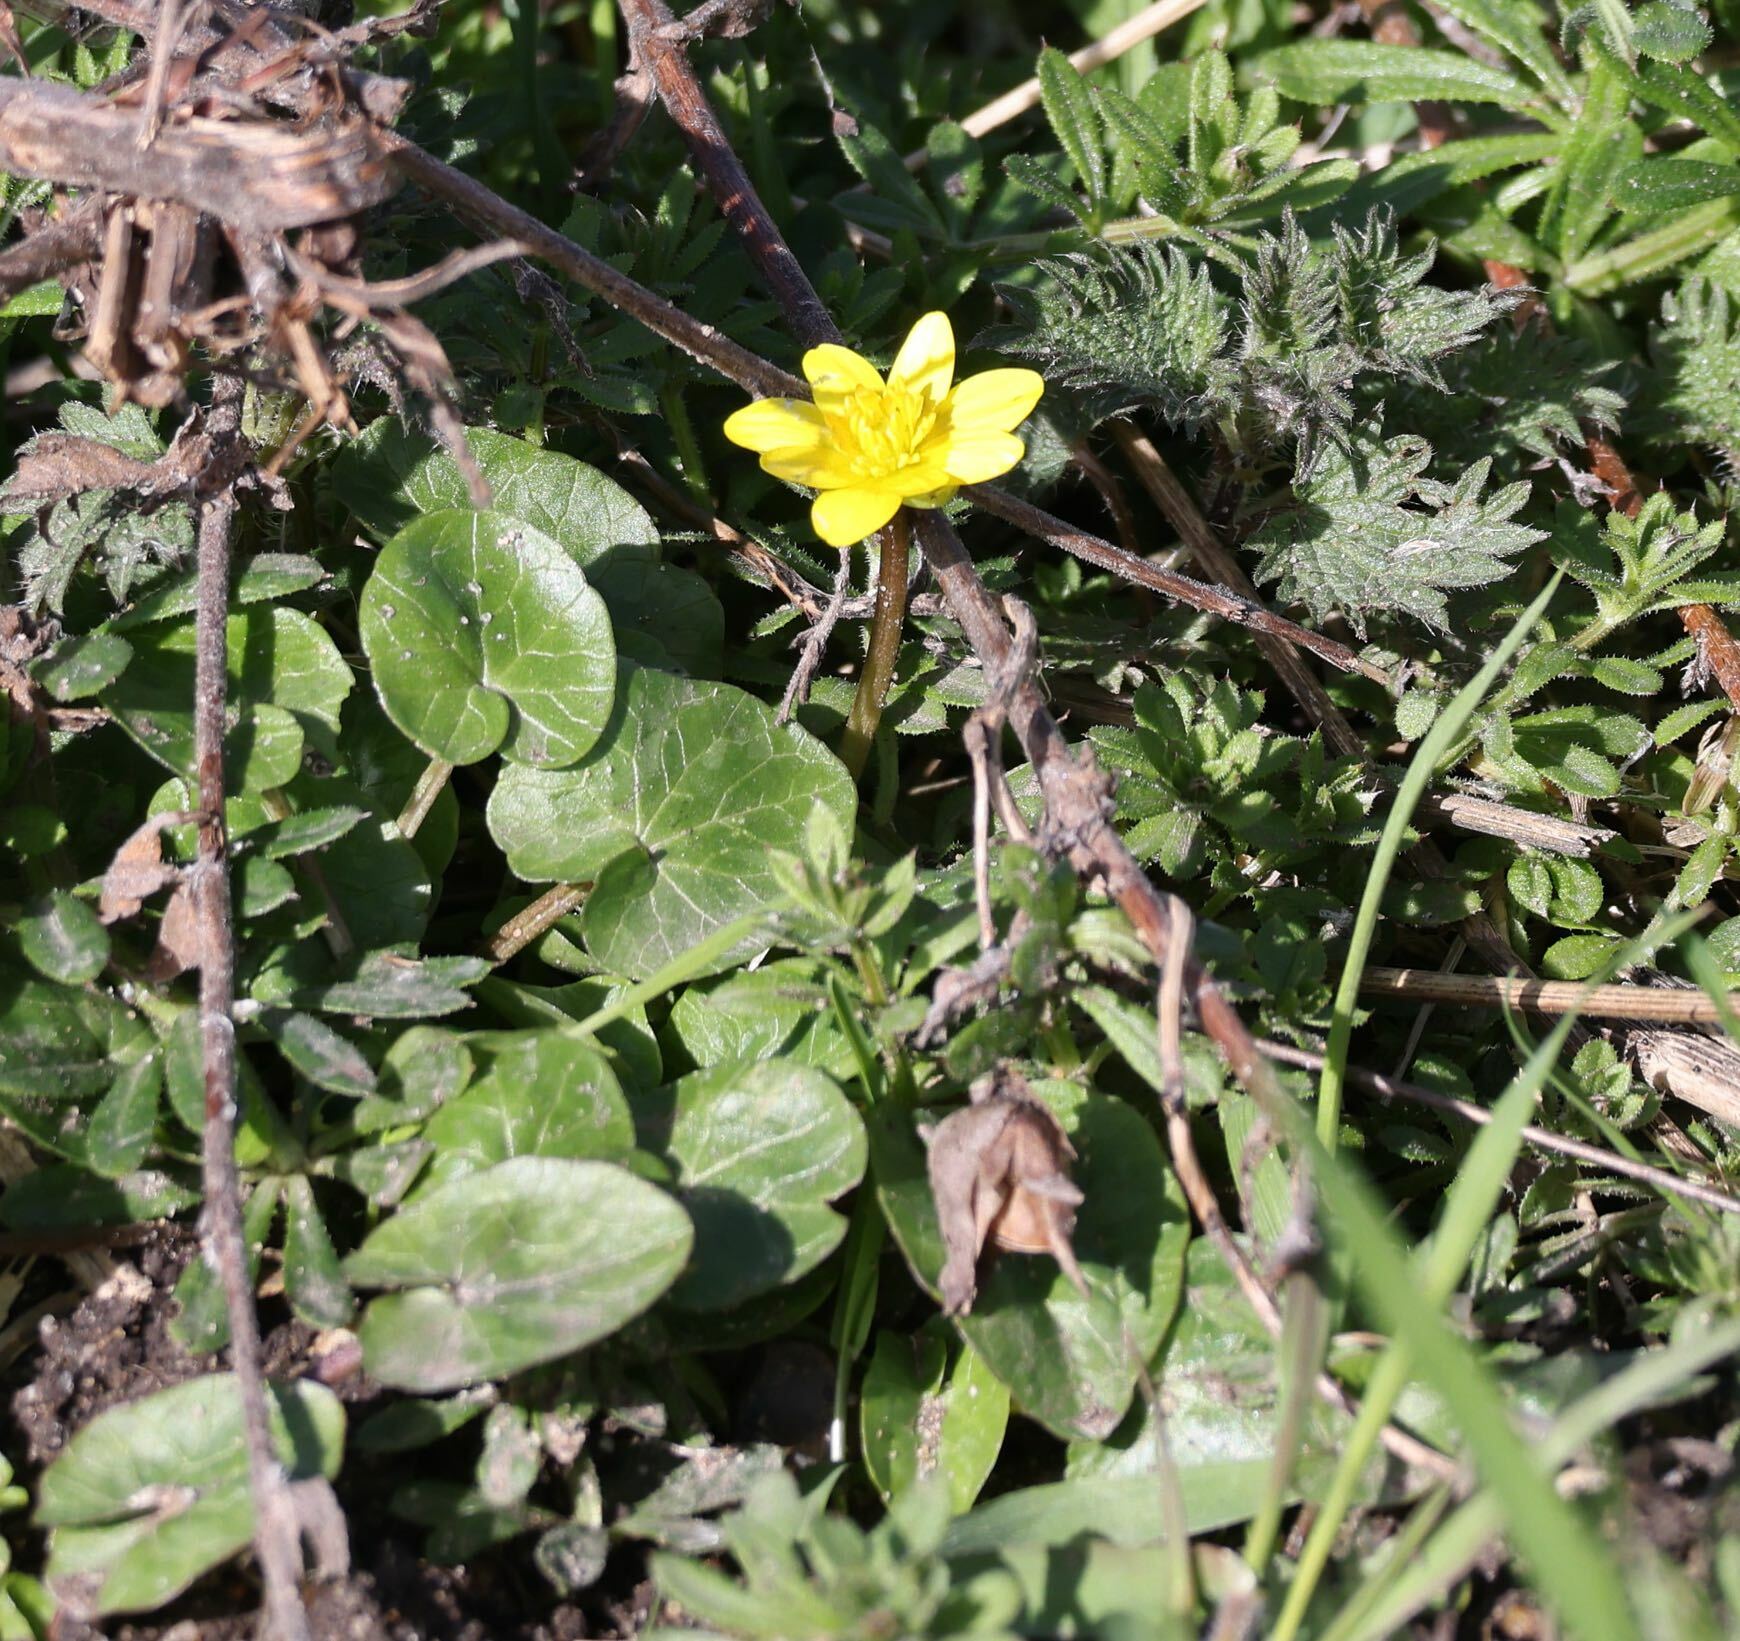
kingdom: Plantae
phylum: Tracheophyta
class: Magnoliopsida
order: Ranunculales
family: Ranunculaceae
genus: Ficaria
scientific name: Ficaria verna
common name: Lesser celandine
